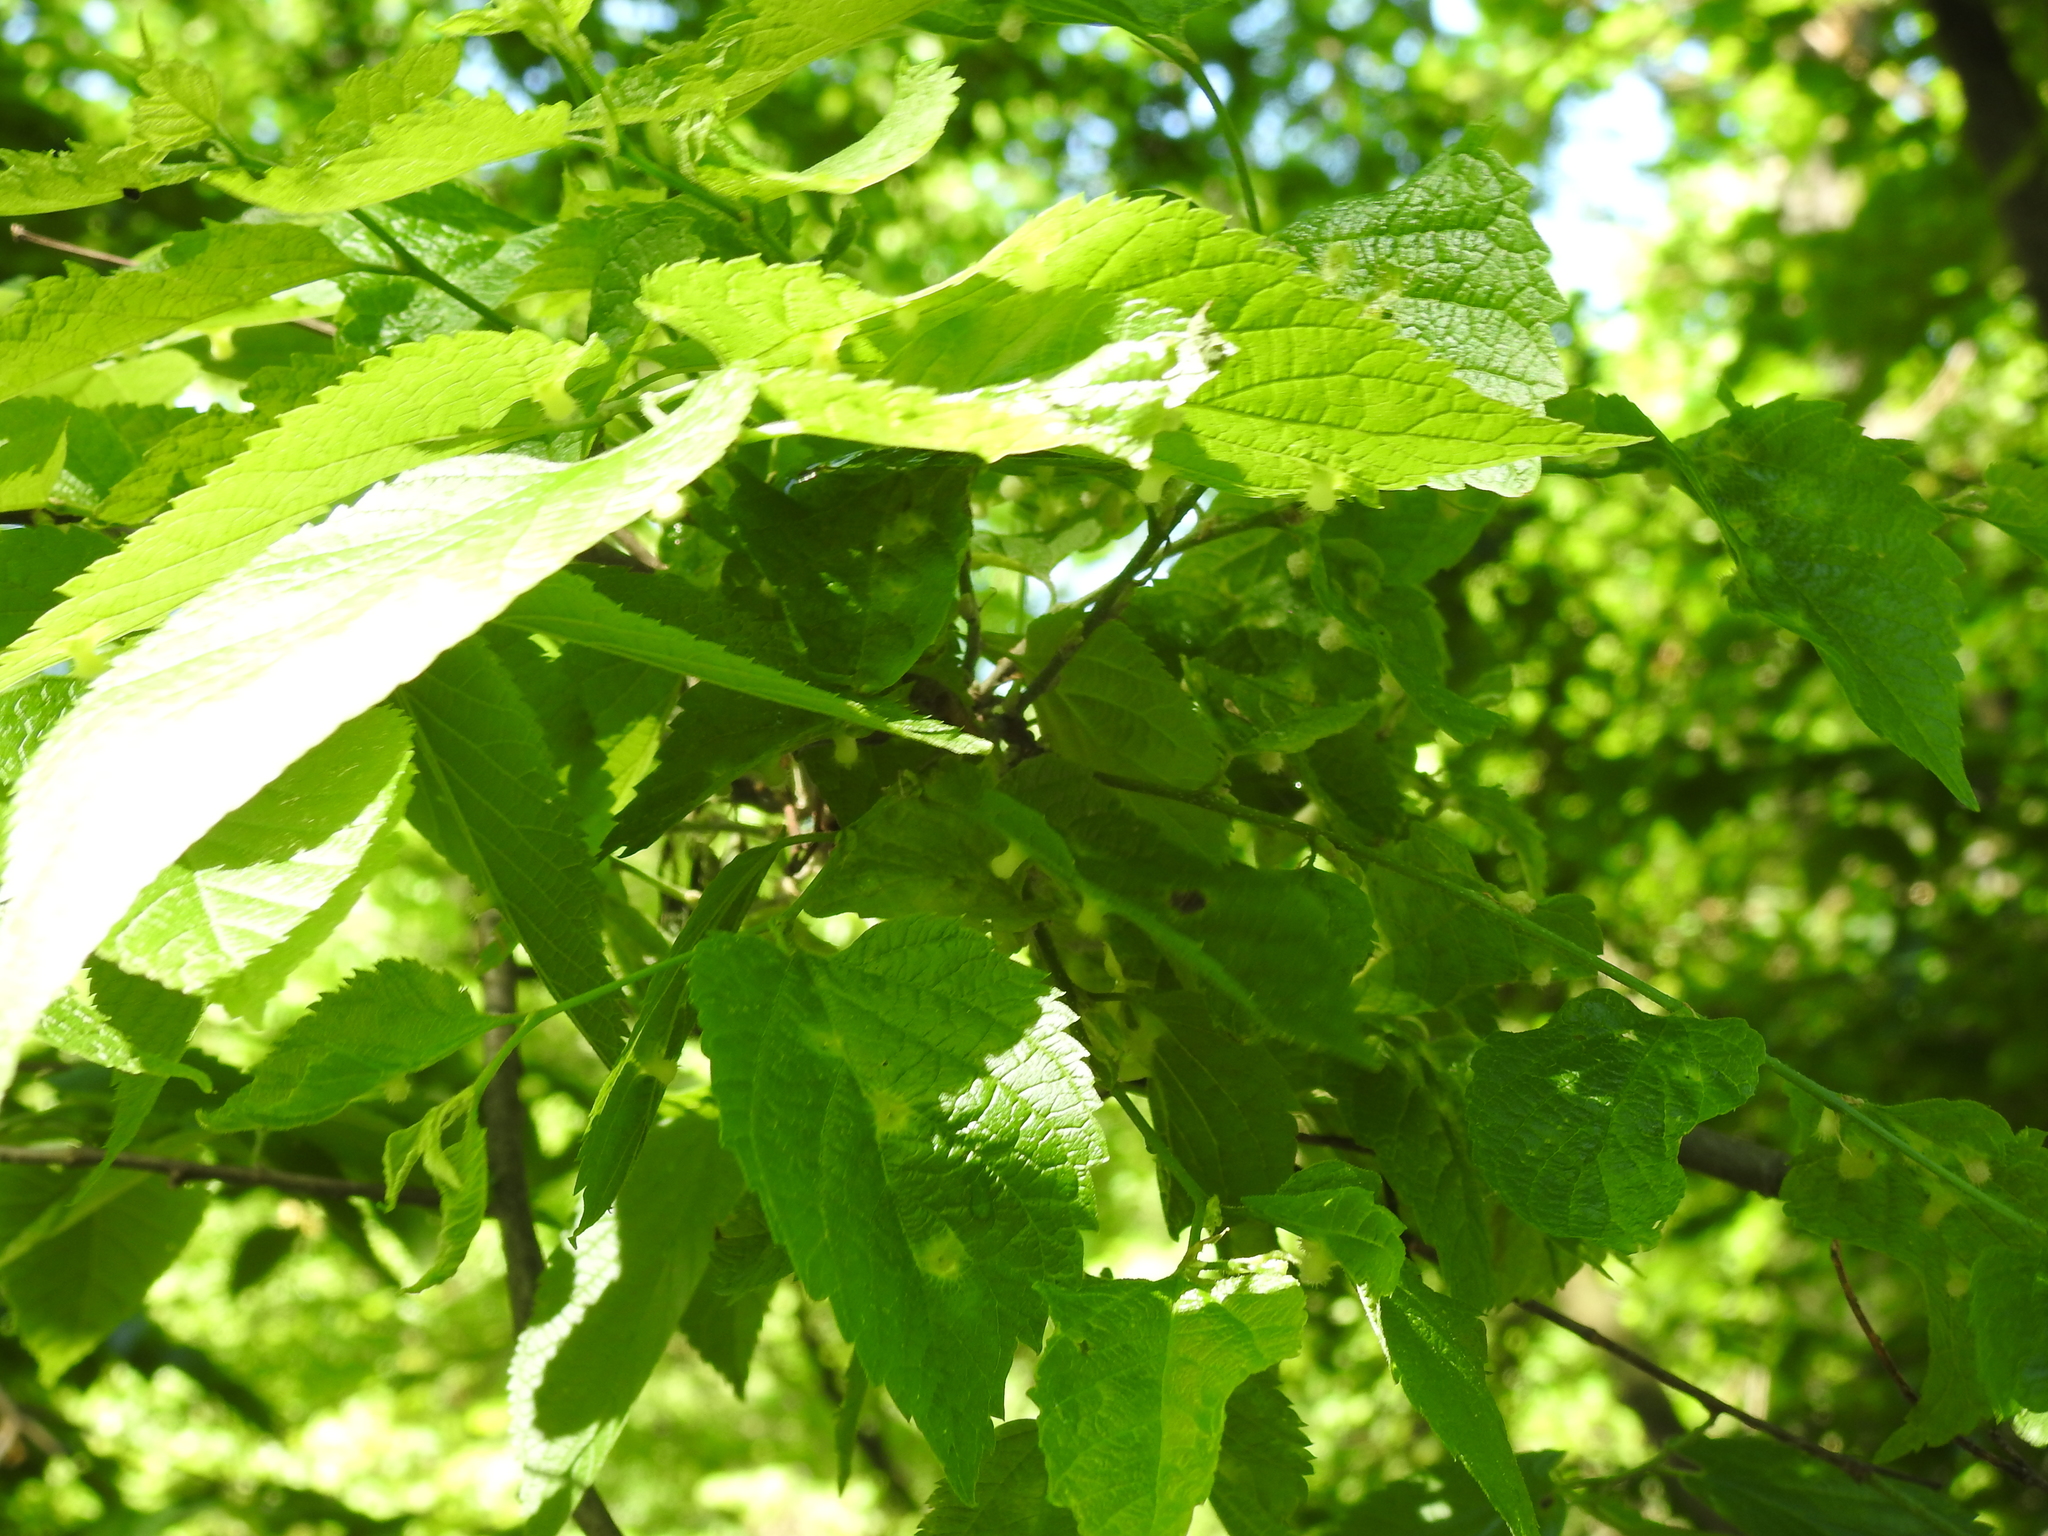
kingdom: Animalia
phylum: Arthropoda
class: Insecta
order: Hemiptera
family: Aphalaridae
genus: Pachypsylla
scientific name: Pachypsylla celtidismamma
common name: Hackberry nipplegall psyllid
